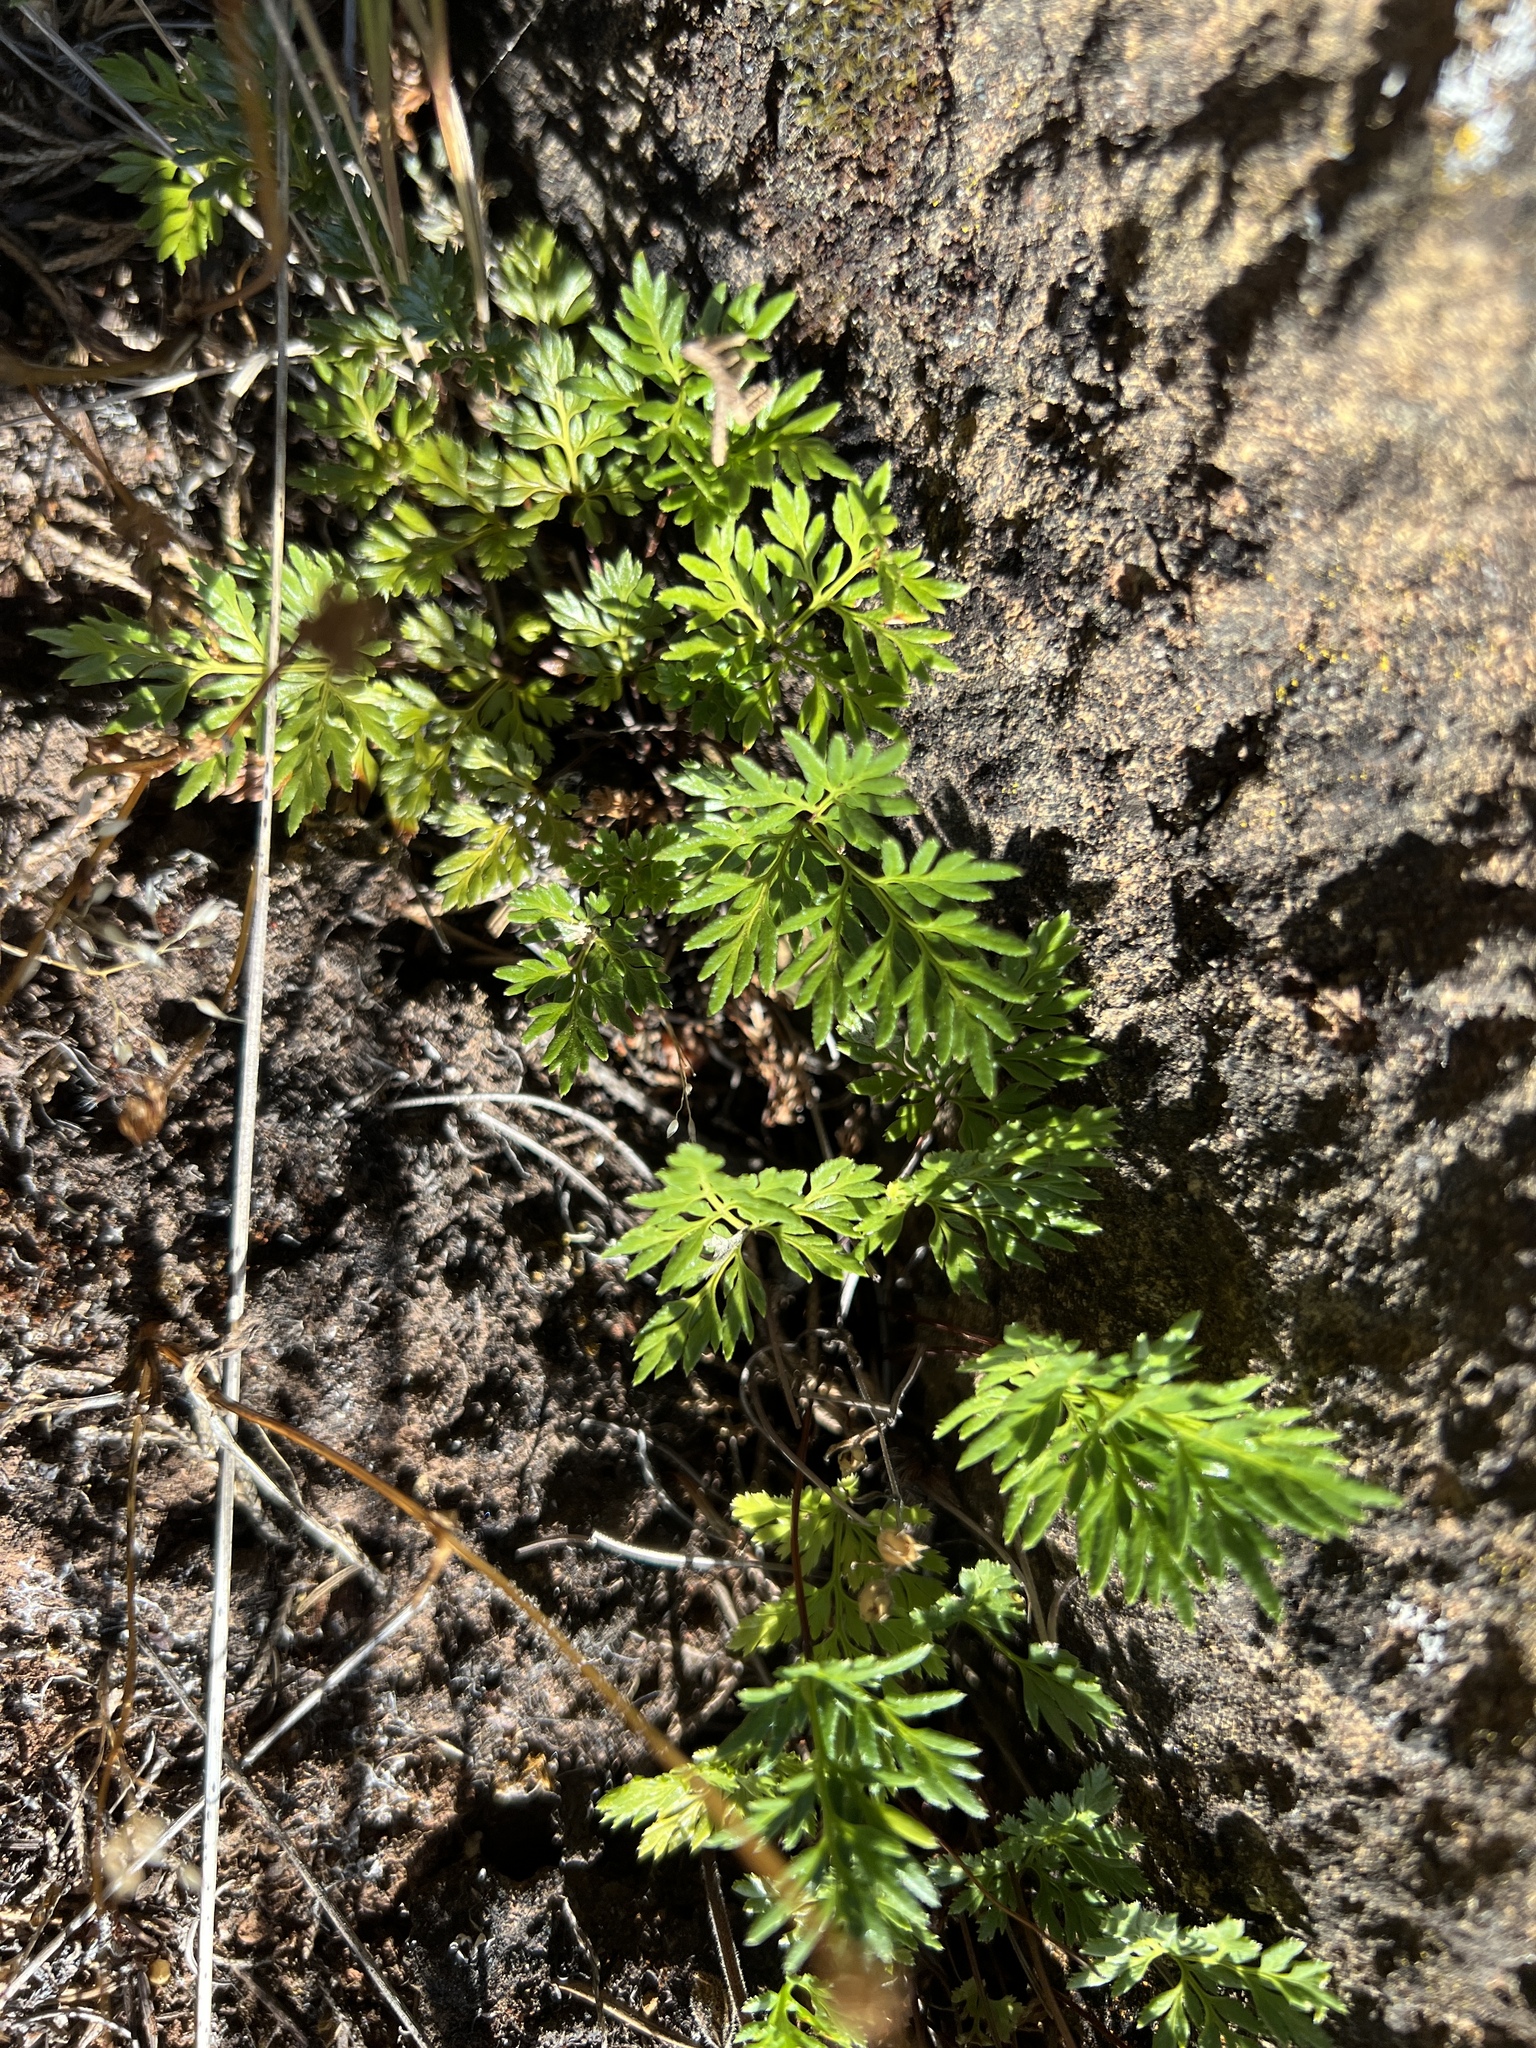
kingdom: Plantae
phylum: Tracheophyta
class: Polypodiopsida
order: Polypodiales
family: Pteridaceae
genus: Aspidotis
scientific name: Aspidotis densa
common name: Indian's dream
